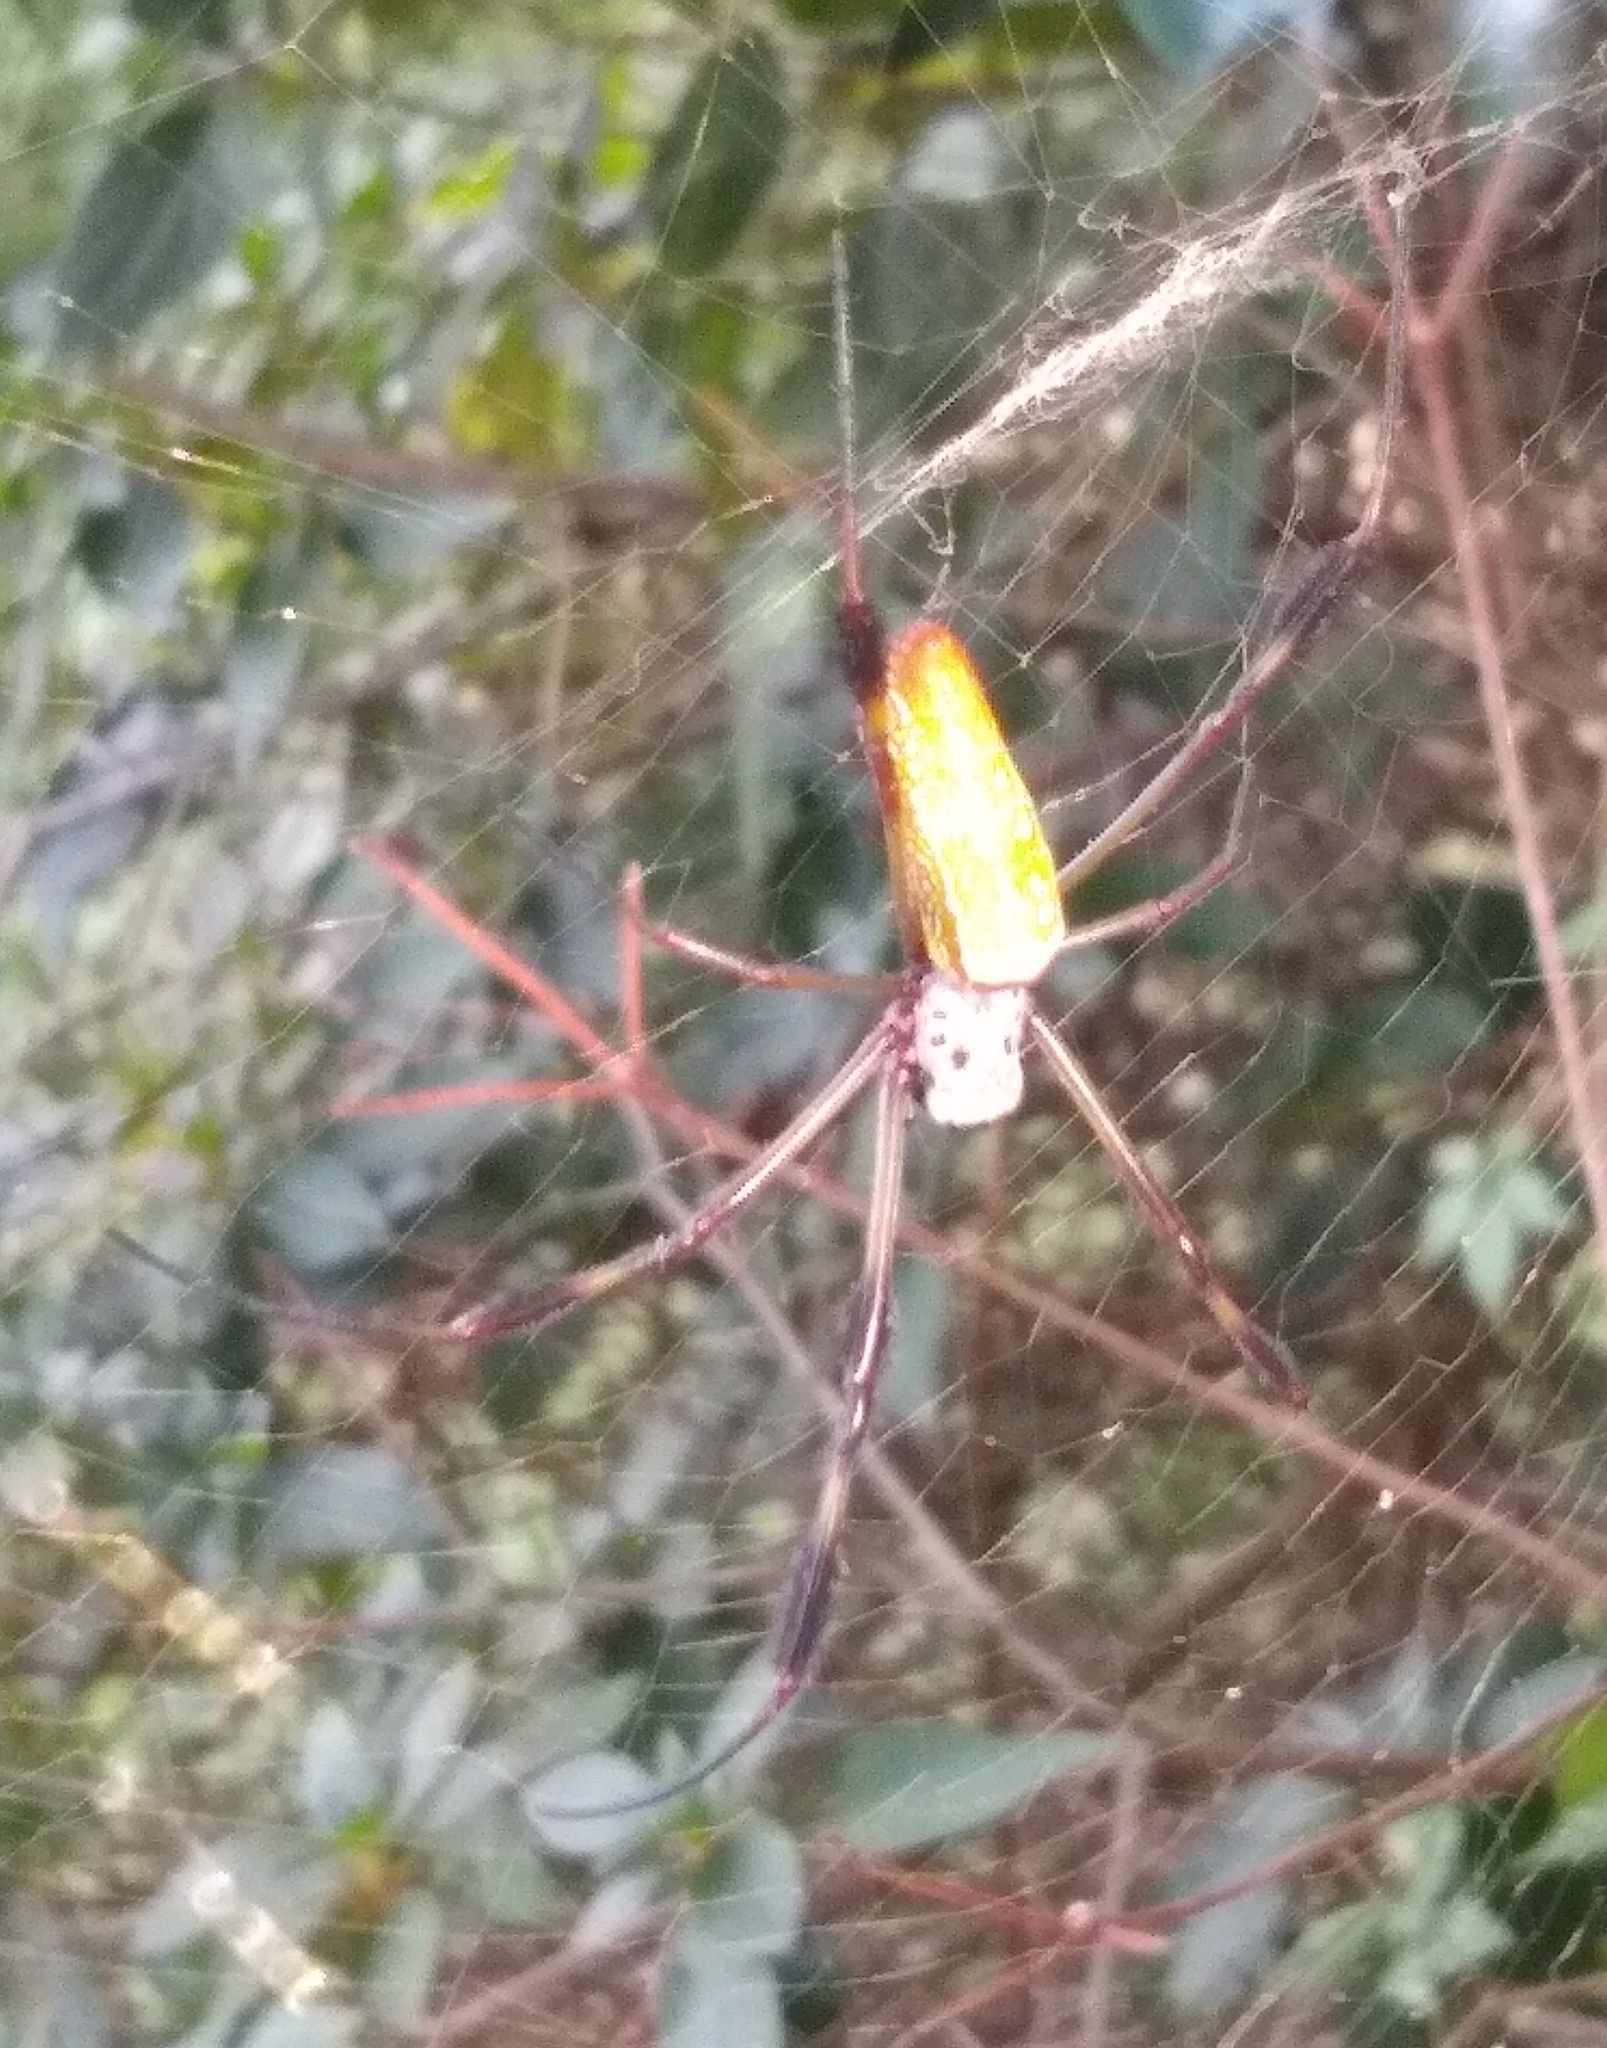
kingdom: Animalia
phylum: Arthropoda
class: Arachnida
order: Araneae
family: Araneidae
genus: Trichonephila
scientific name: Trichonephila clavipes
